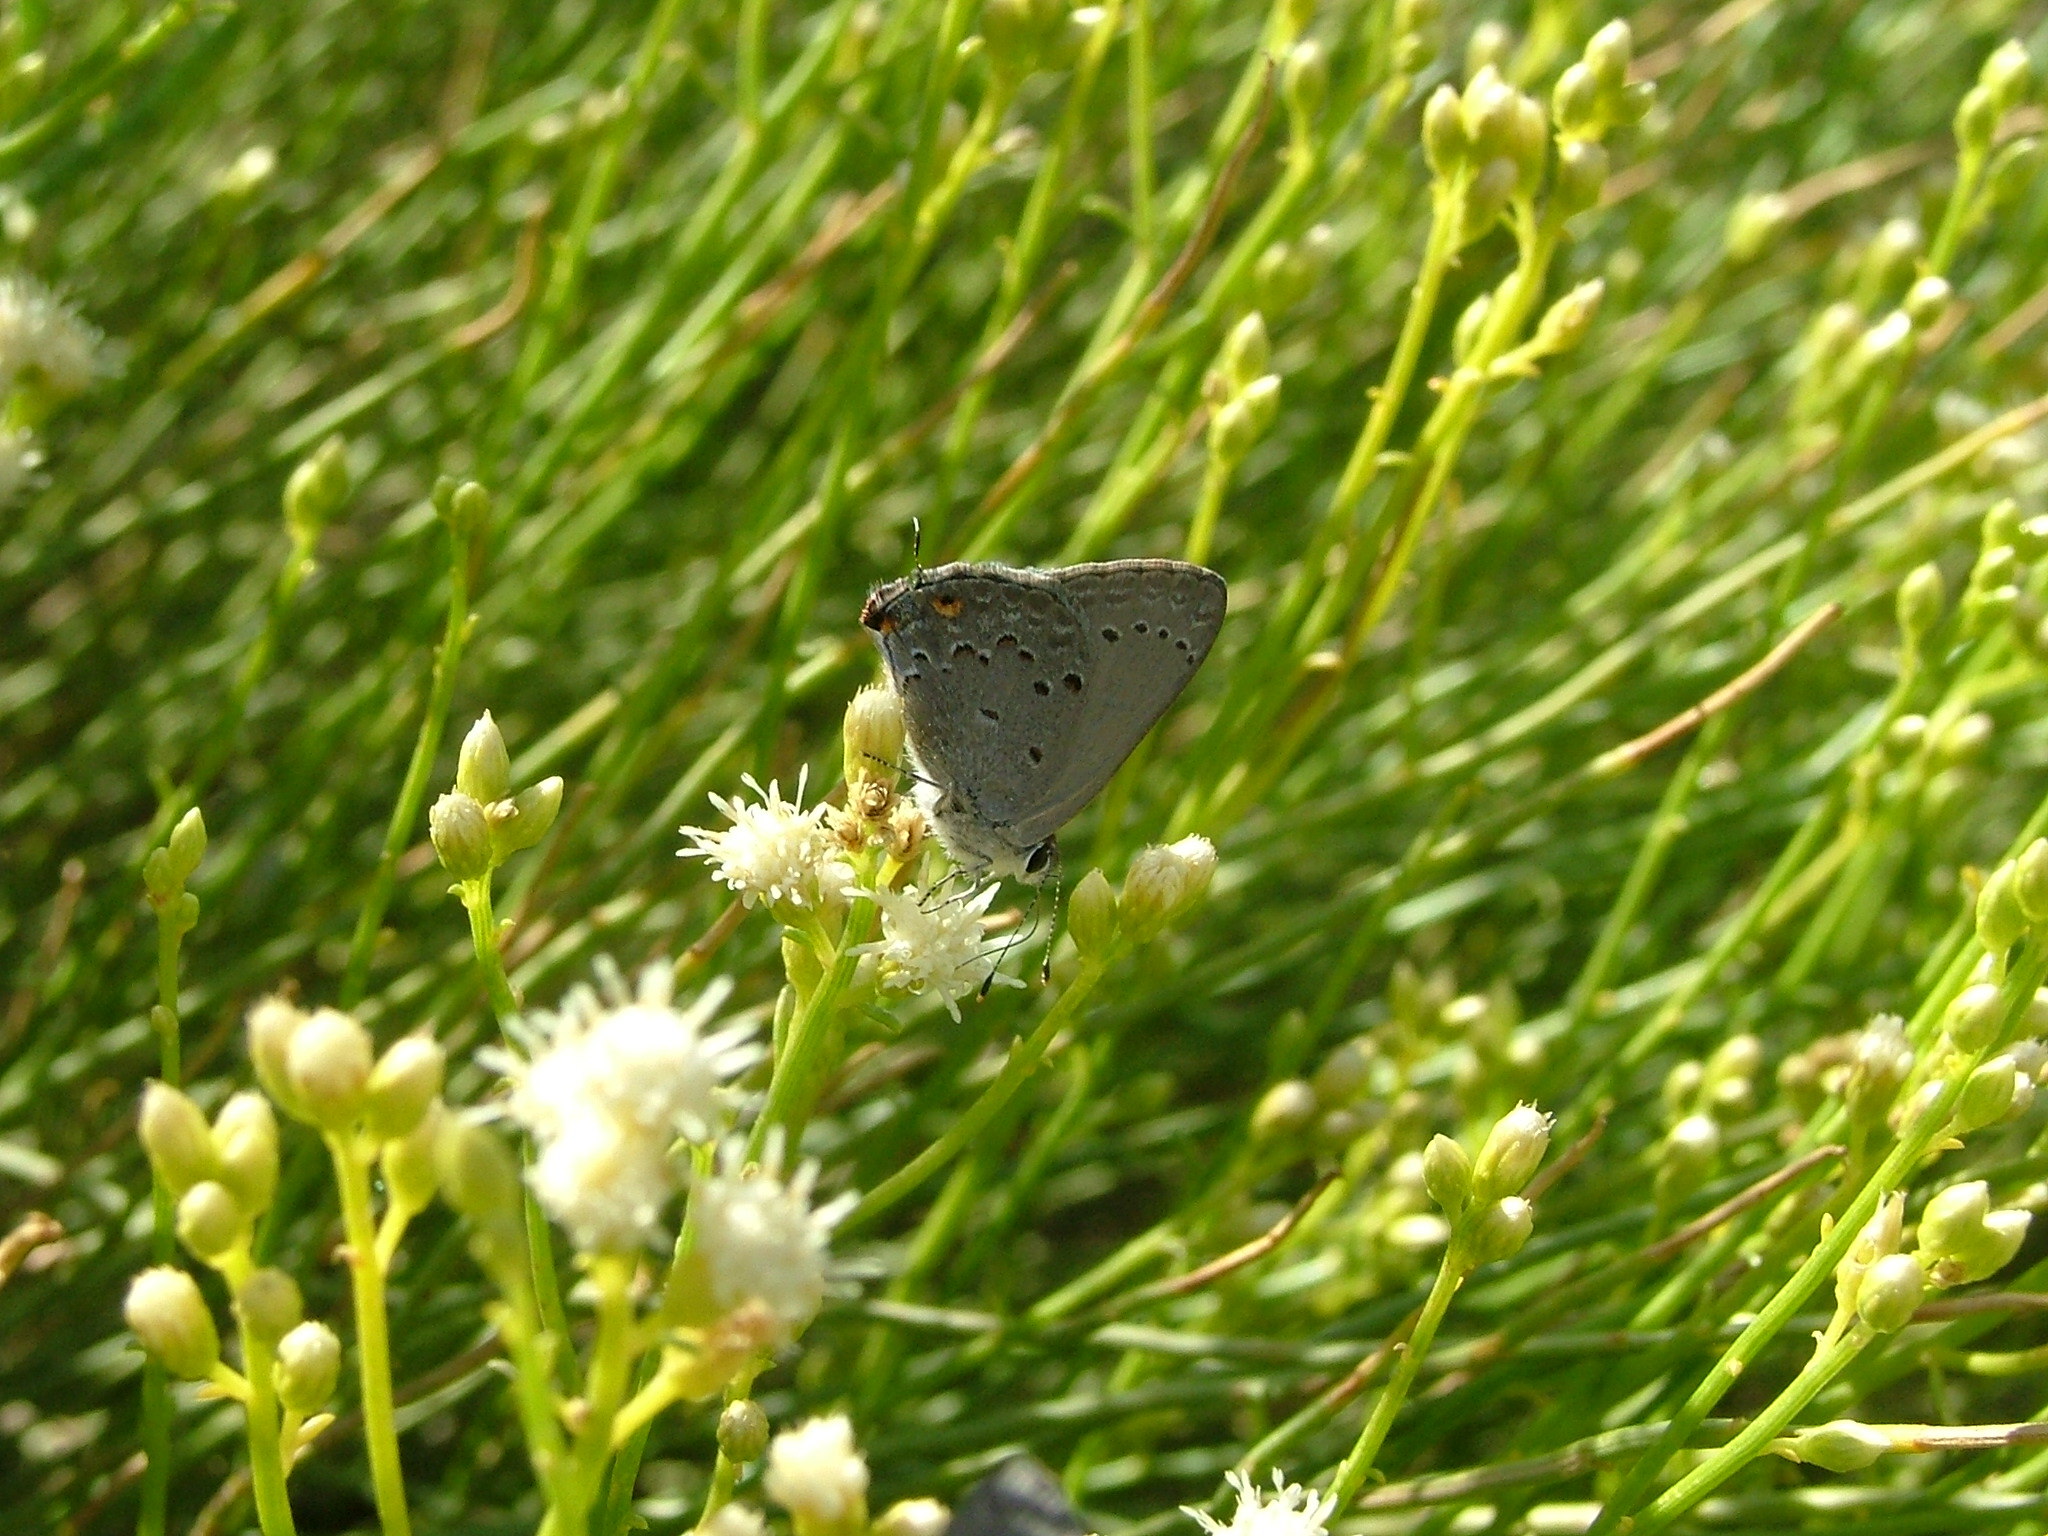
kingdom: Animalia
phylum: Arthropoda
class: Insecta
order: Lepidoptera
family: Lycaenidae
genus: Strymon
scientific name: Strymon eurytulus
